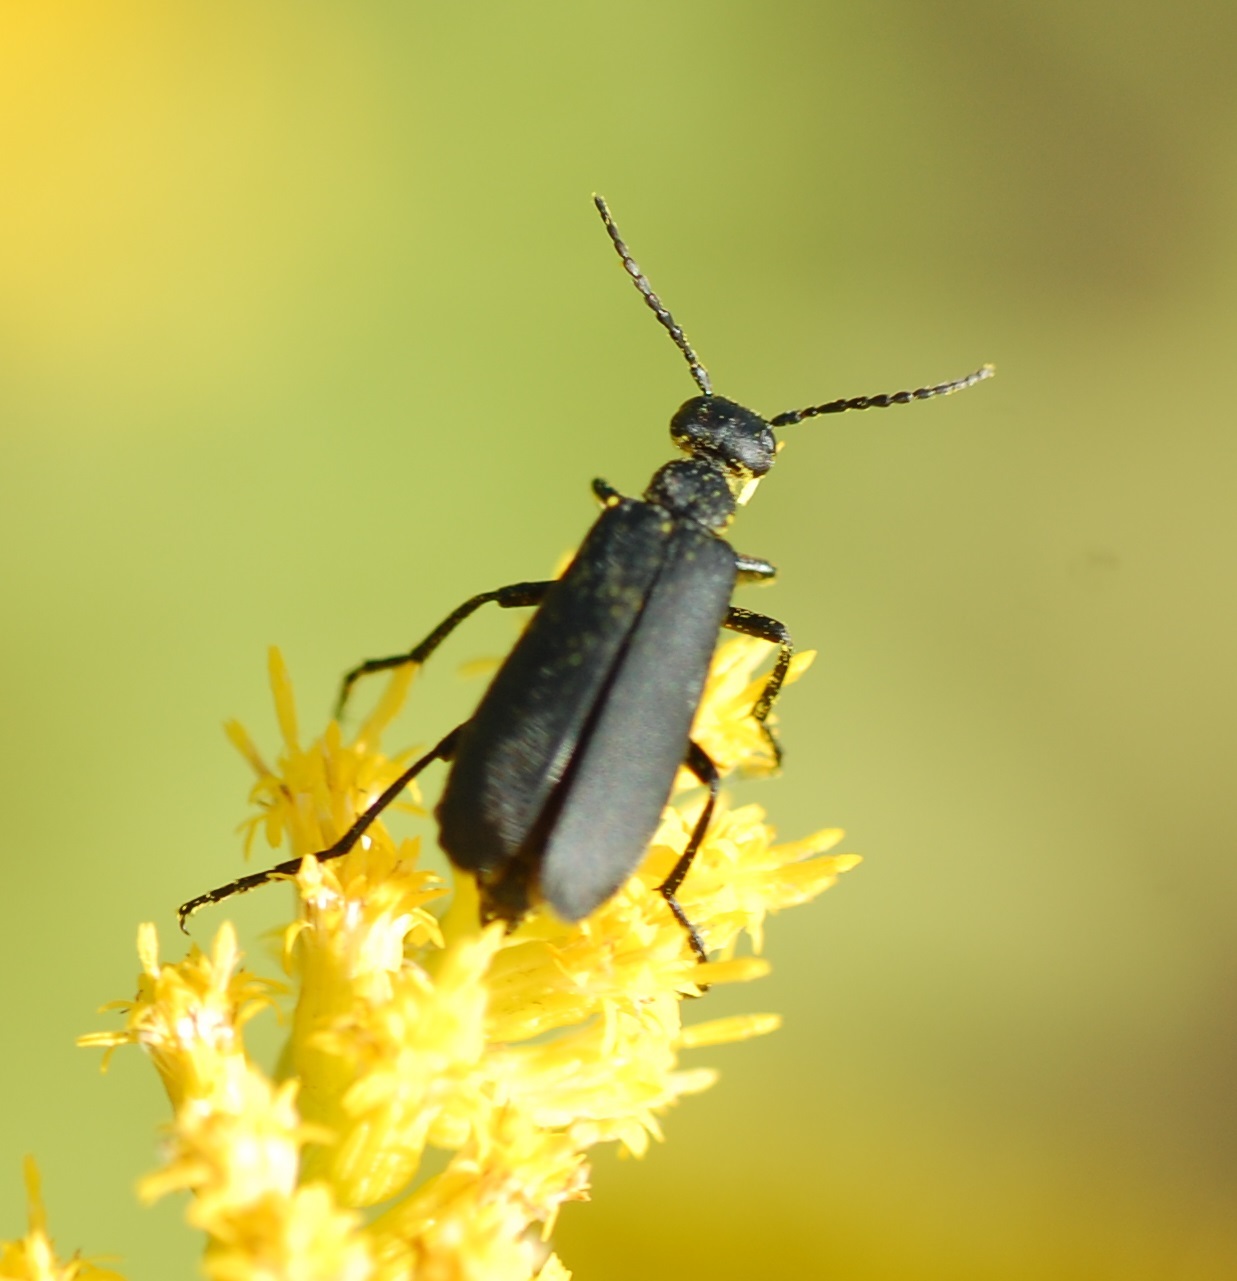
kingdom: Animalia
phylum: Arthropoda
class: Insecta
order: Coleoptera
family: Meloidae
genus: Epicauta
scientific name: Epicauta pensylvanica
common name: Black blister beetle
